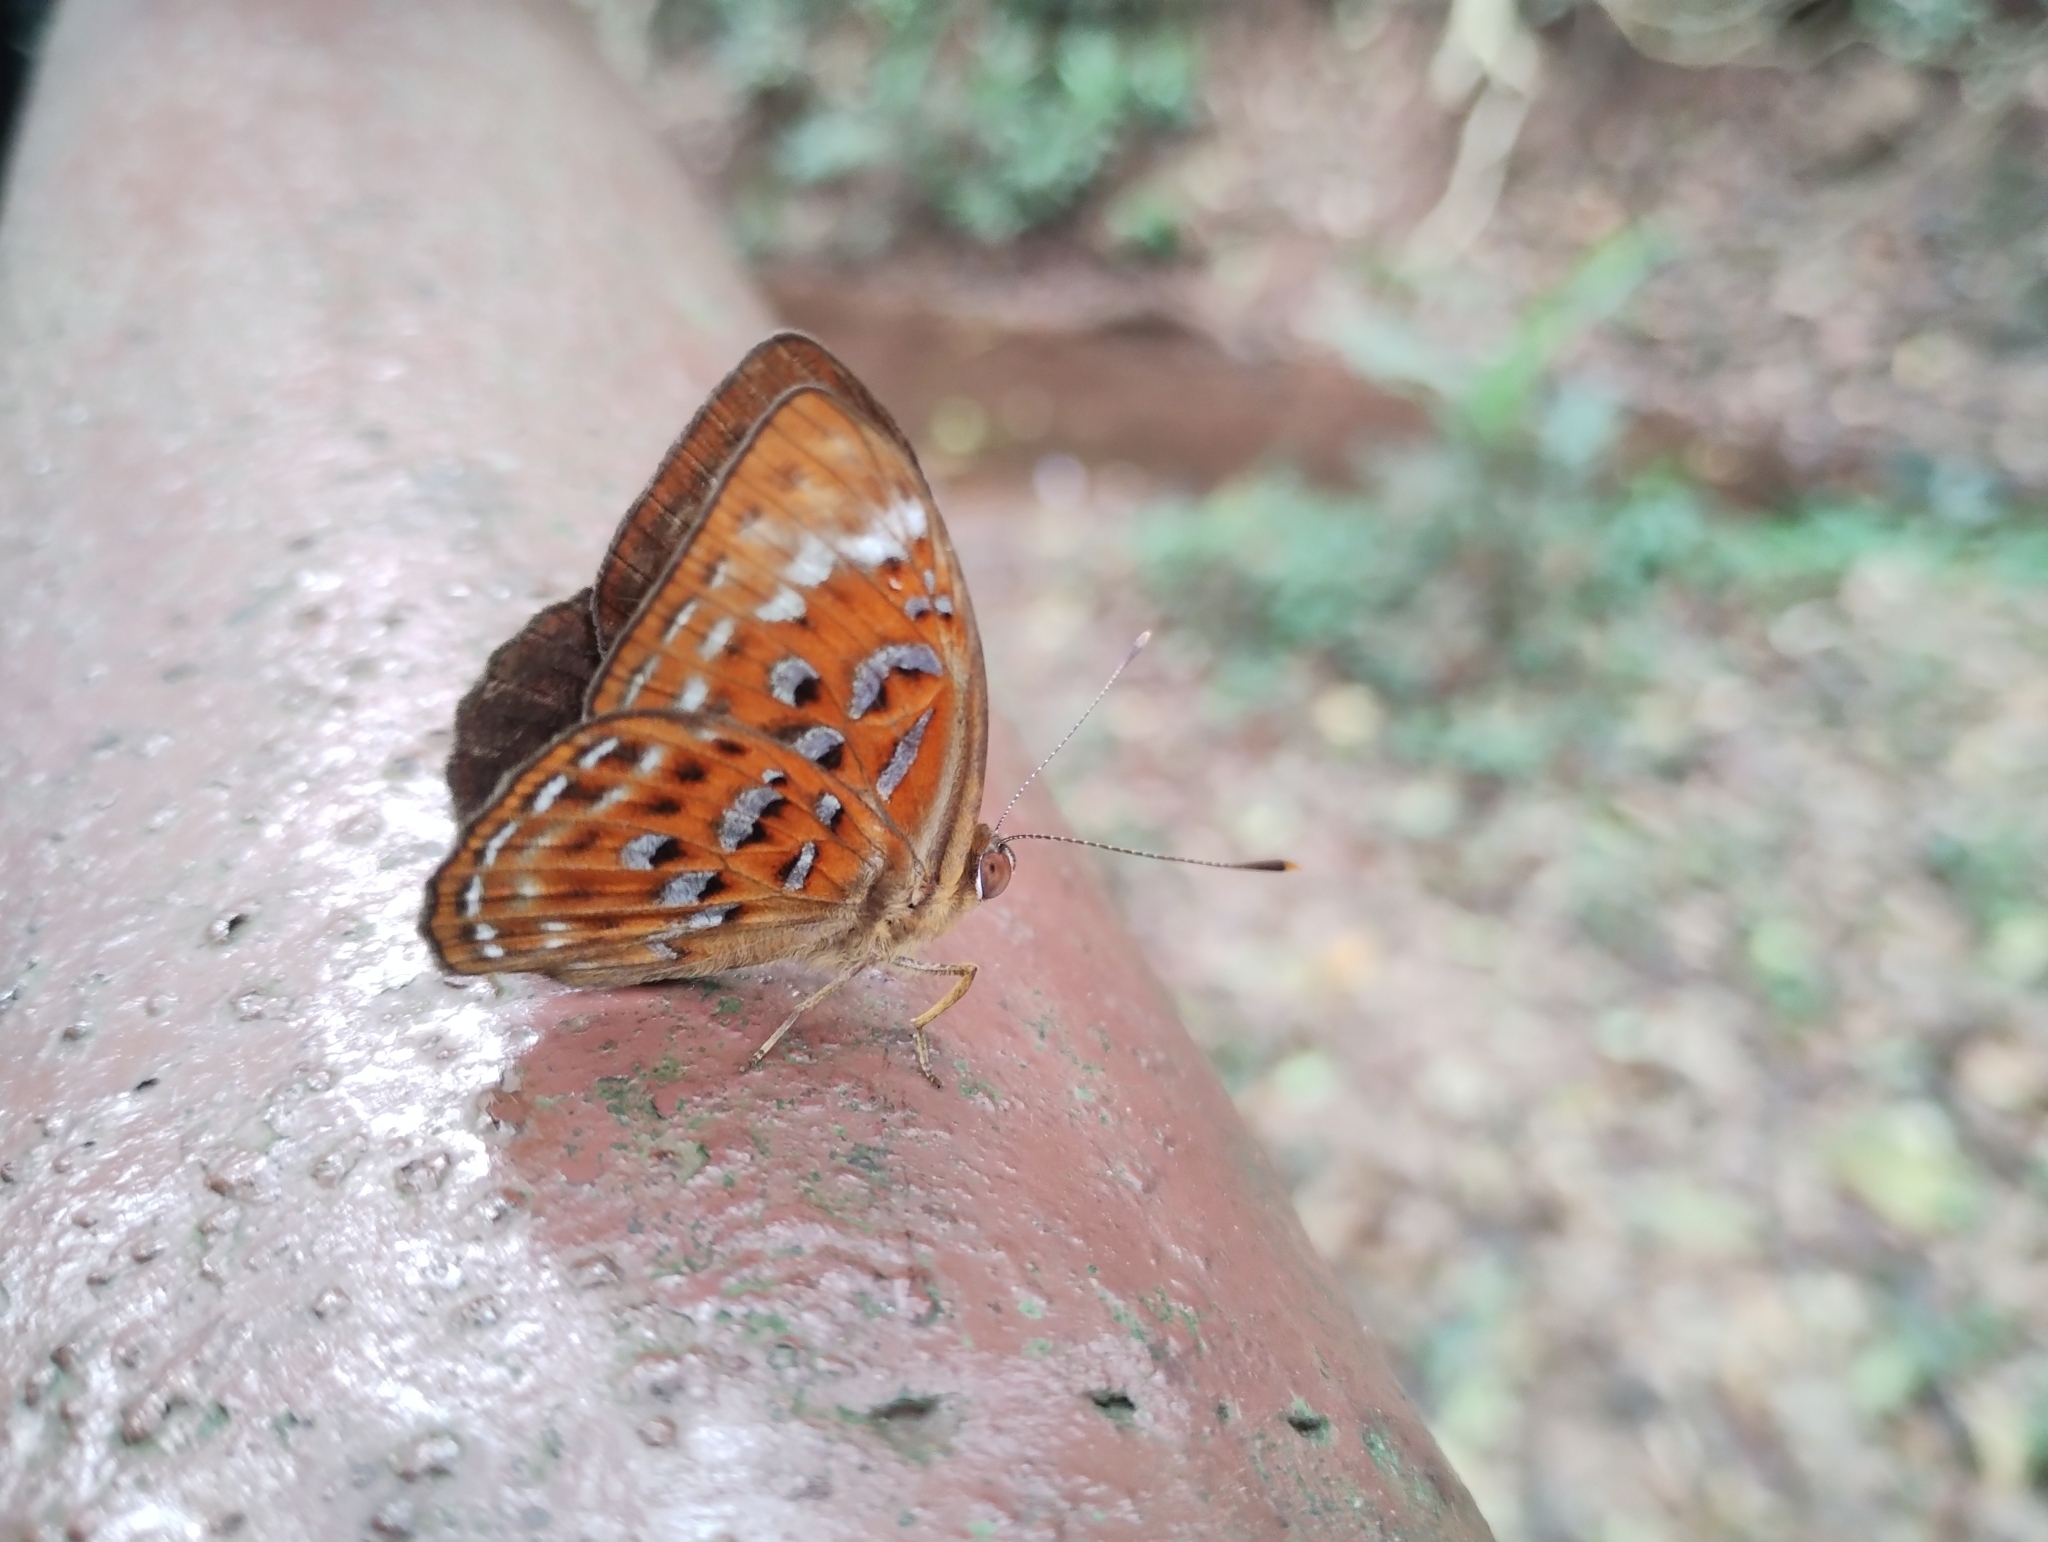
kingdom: Animalia
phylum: Arthropoda
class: Insecta
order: Lepidoptera
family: Erebidae
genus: Dysschema
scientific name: Dysschema
